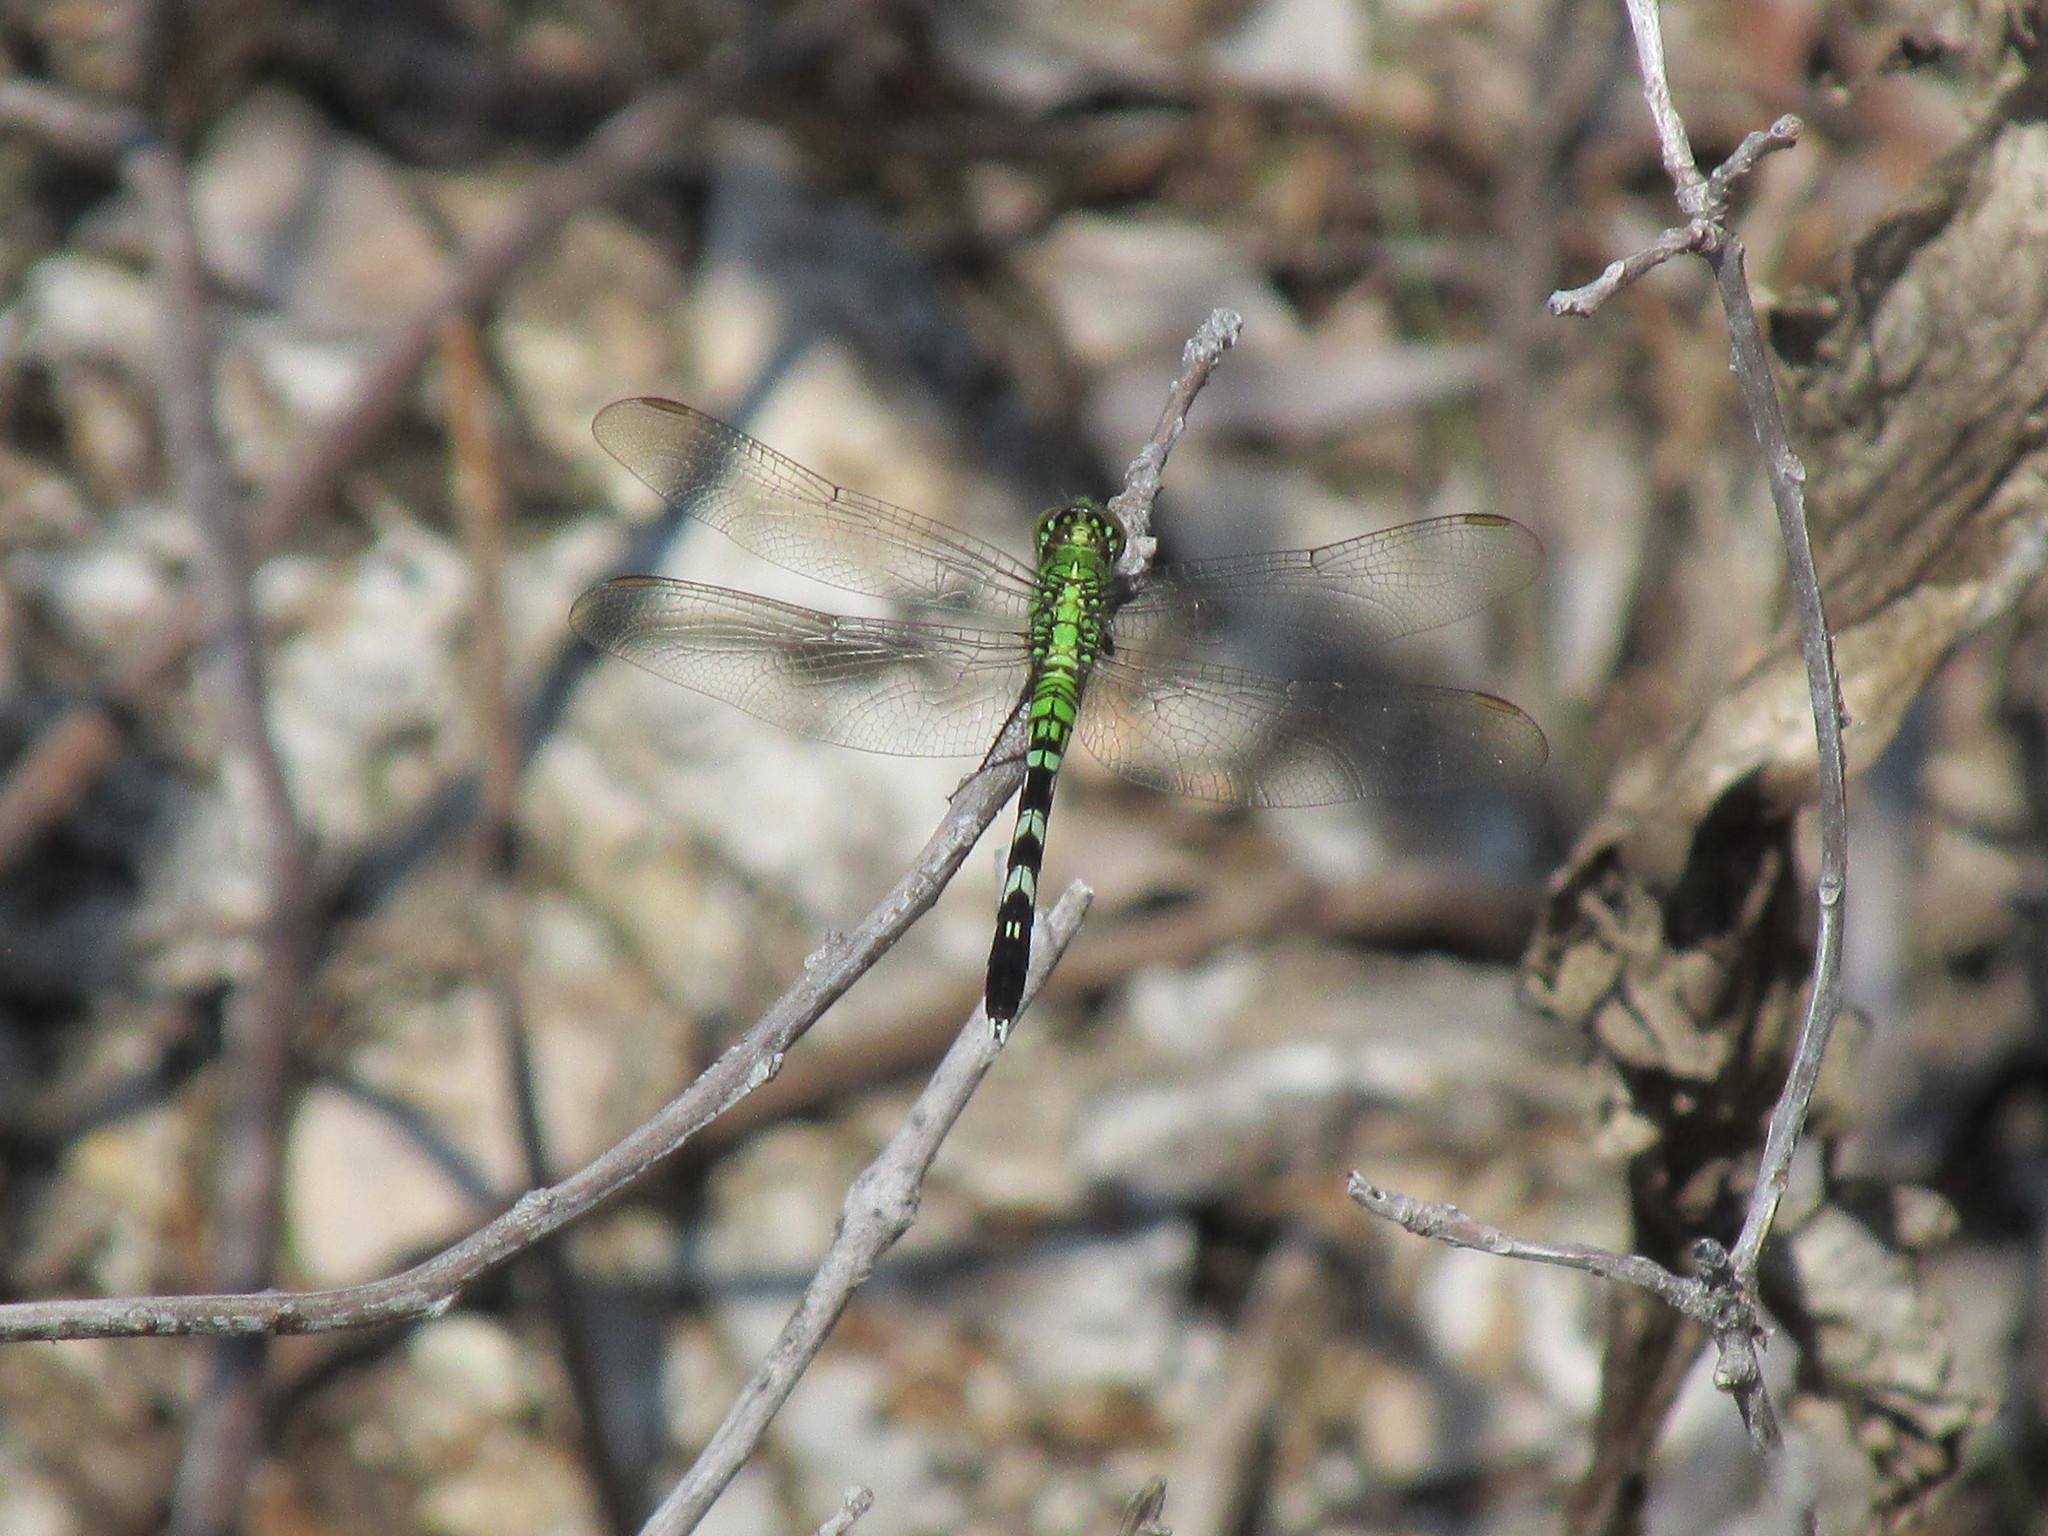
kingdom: Animalia
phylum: Arthropoda
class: Insecta
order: Odonata
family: Libellulidae
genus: Erythemis
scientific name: Erythemis simplicicollis
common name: Eastern pondhawk
